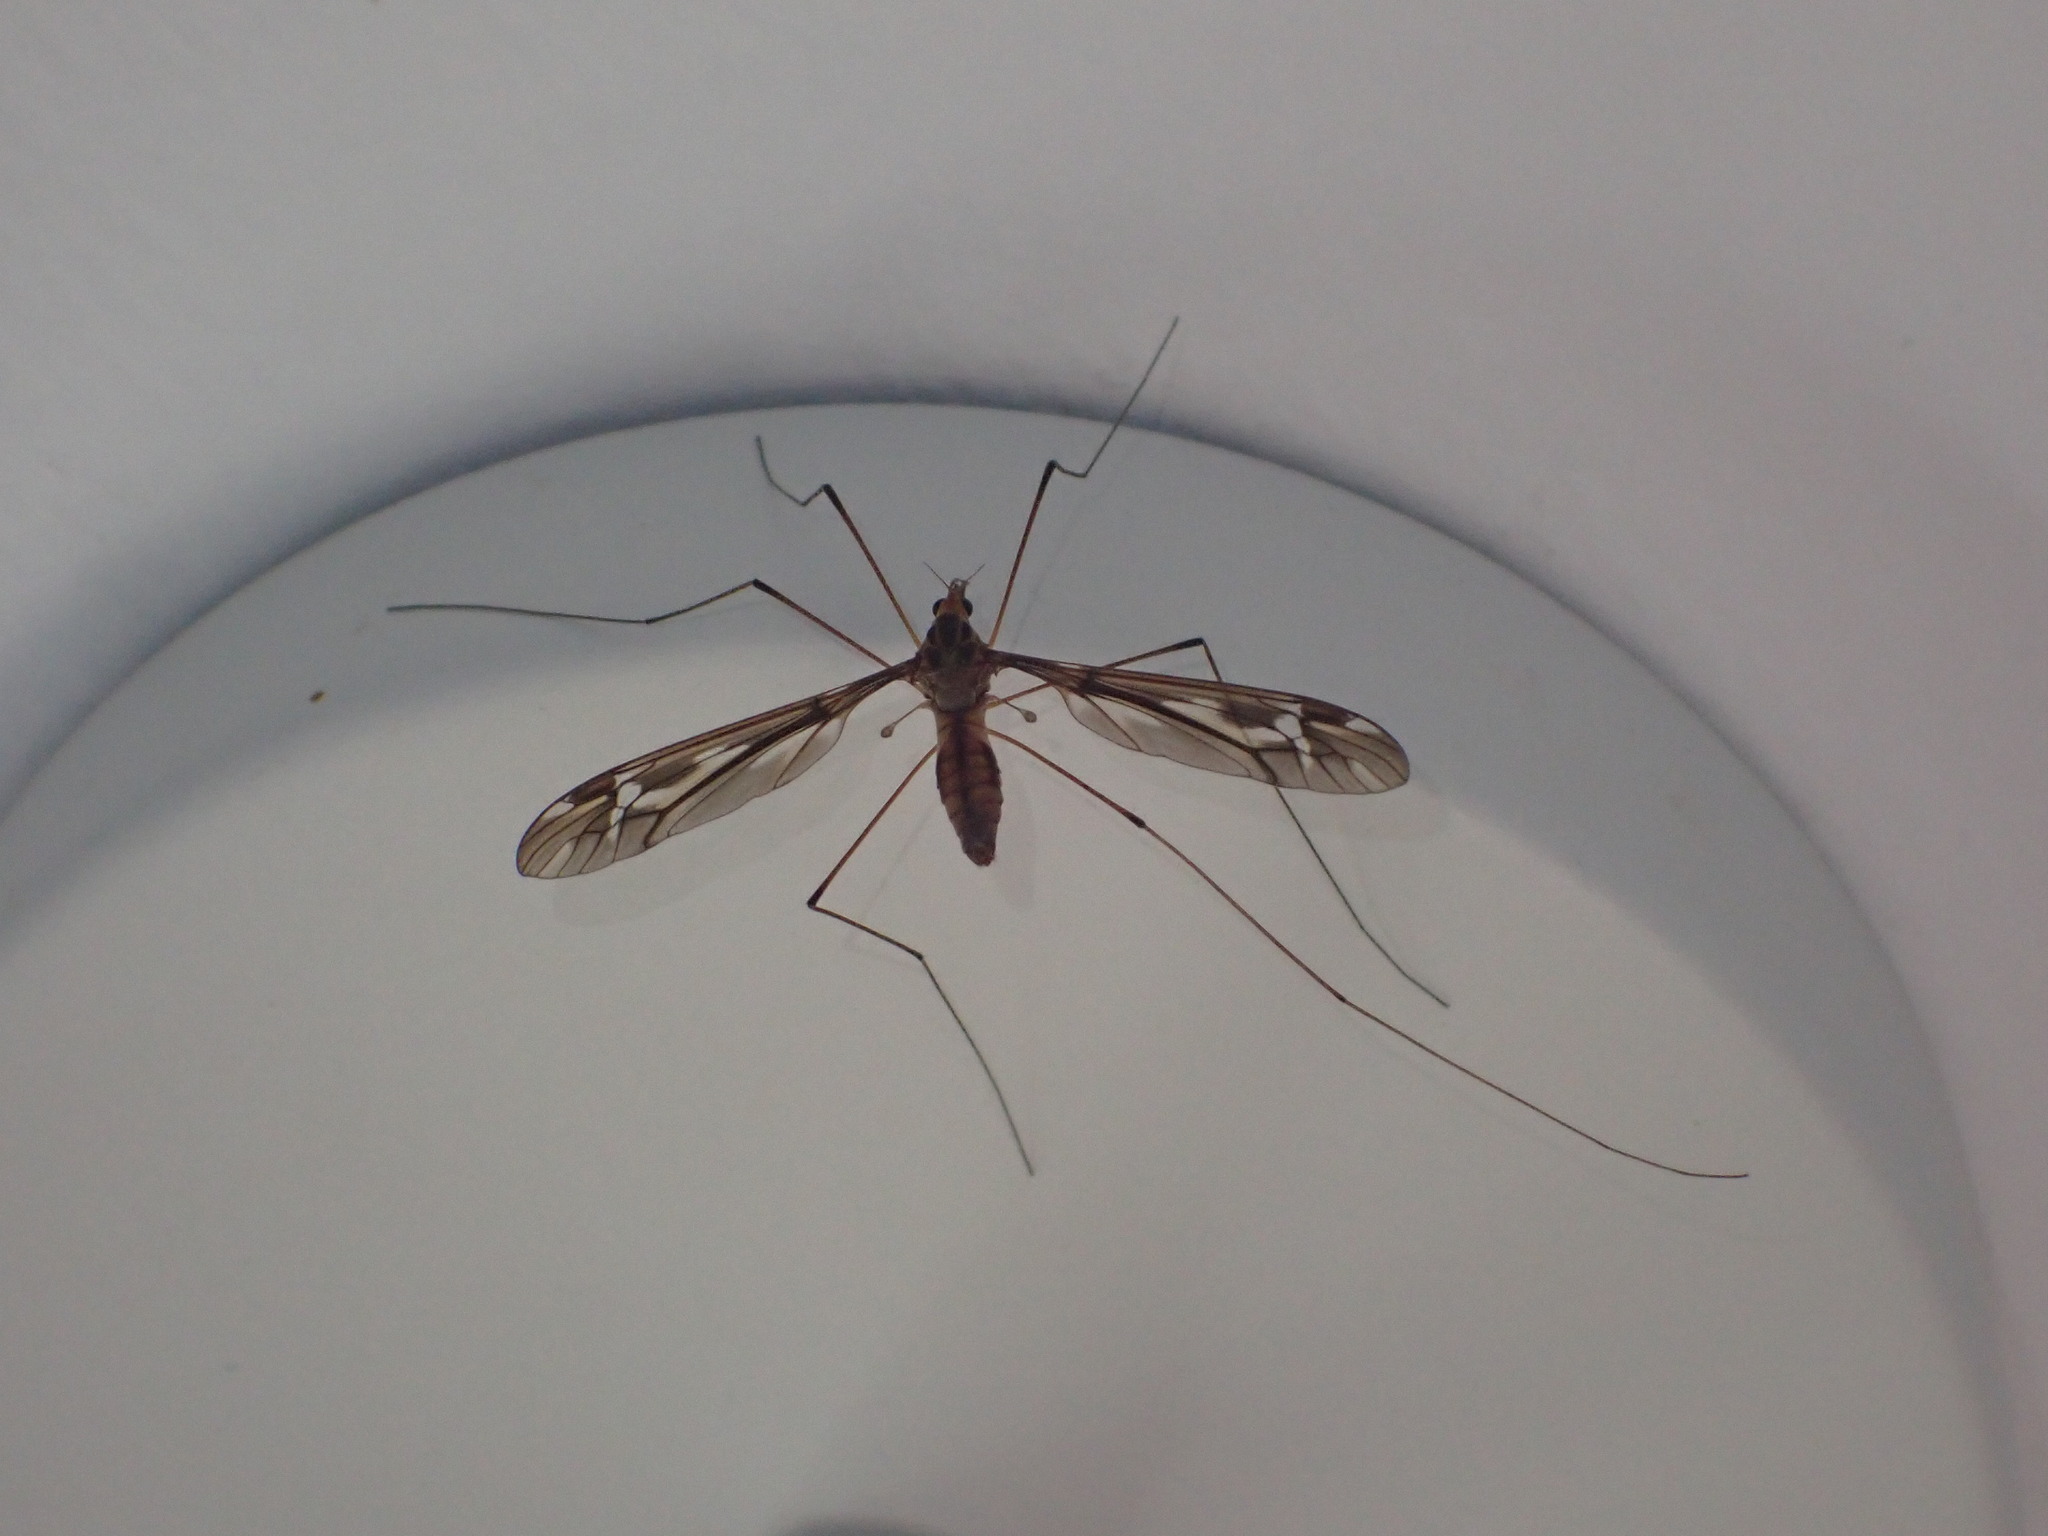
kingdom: Animalia
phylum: Arthropoda
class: Insecta
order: Diptera
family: Tipulidae
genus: Leptotarsus
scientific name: Leptotarsus huttoni
